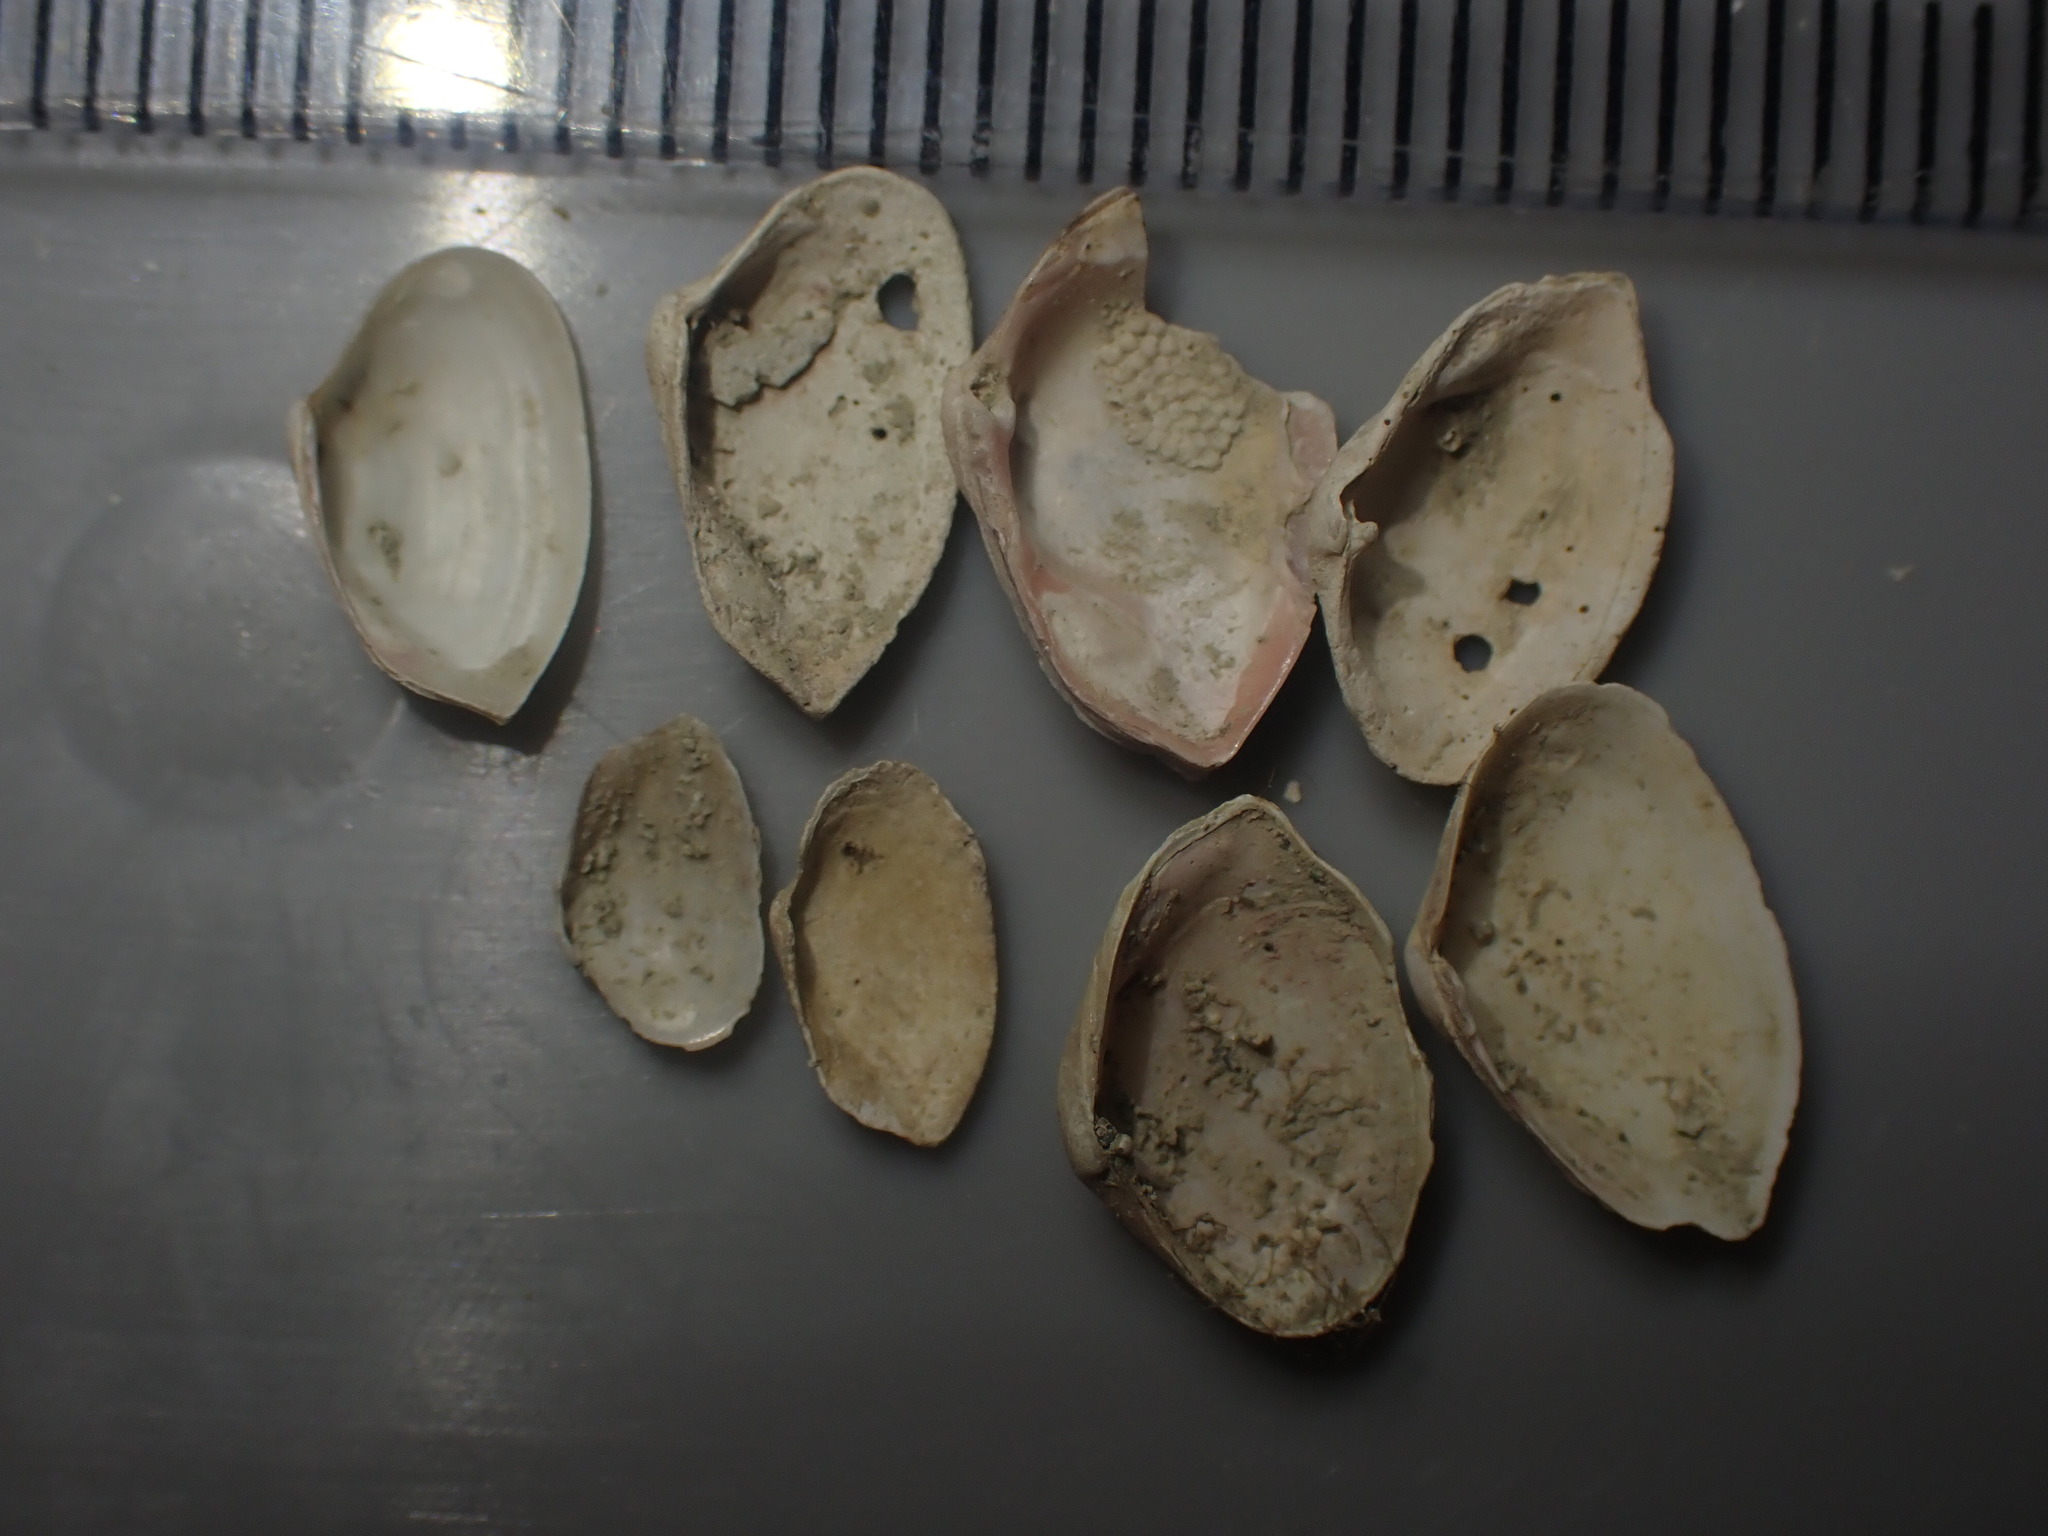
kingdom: Animalia
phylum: Mollusca
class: Bivalvia
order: Myida
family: Corbulidae
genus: Corbula
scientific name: Corbula zelandica
